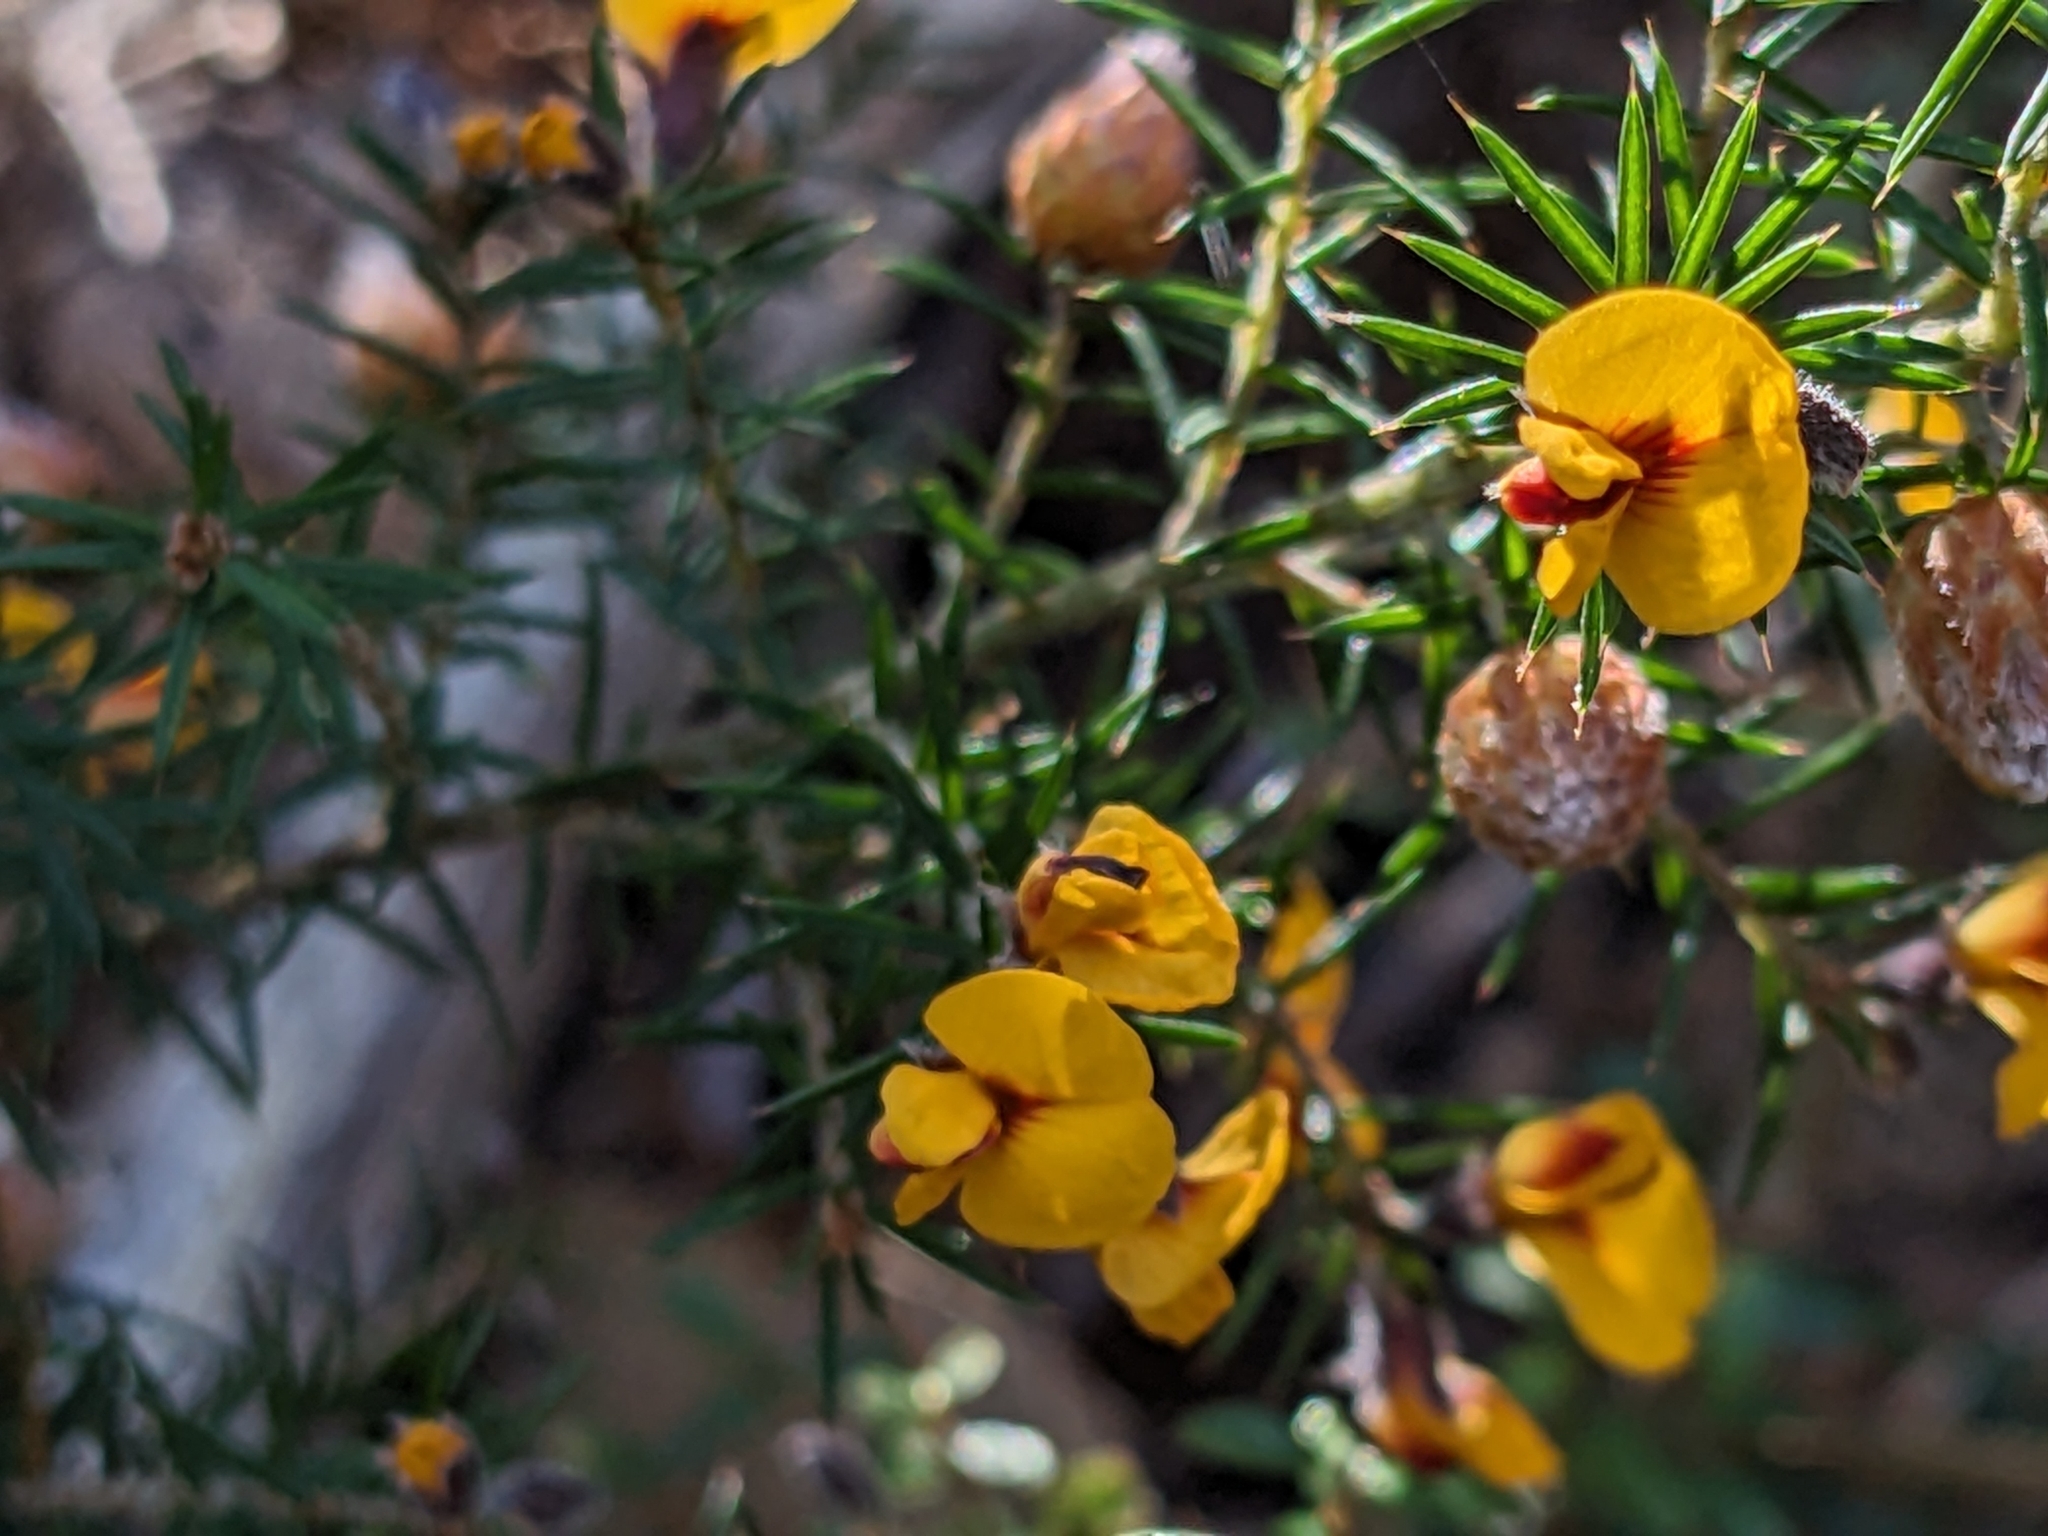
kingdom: Plantae
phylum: Tracheophyta
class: Magnoliopsida
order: Fabales
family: Fabaceae
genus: Pultenaea
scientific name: Pultenaea juniperina
